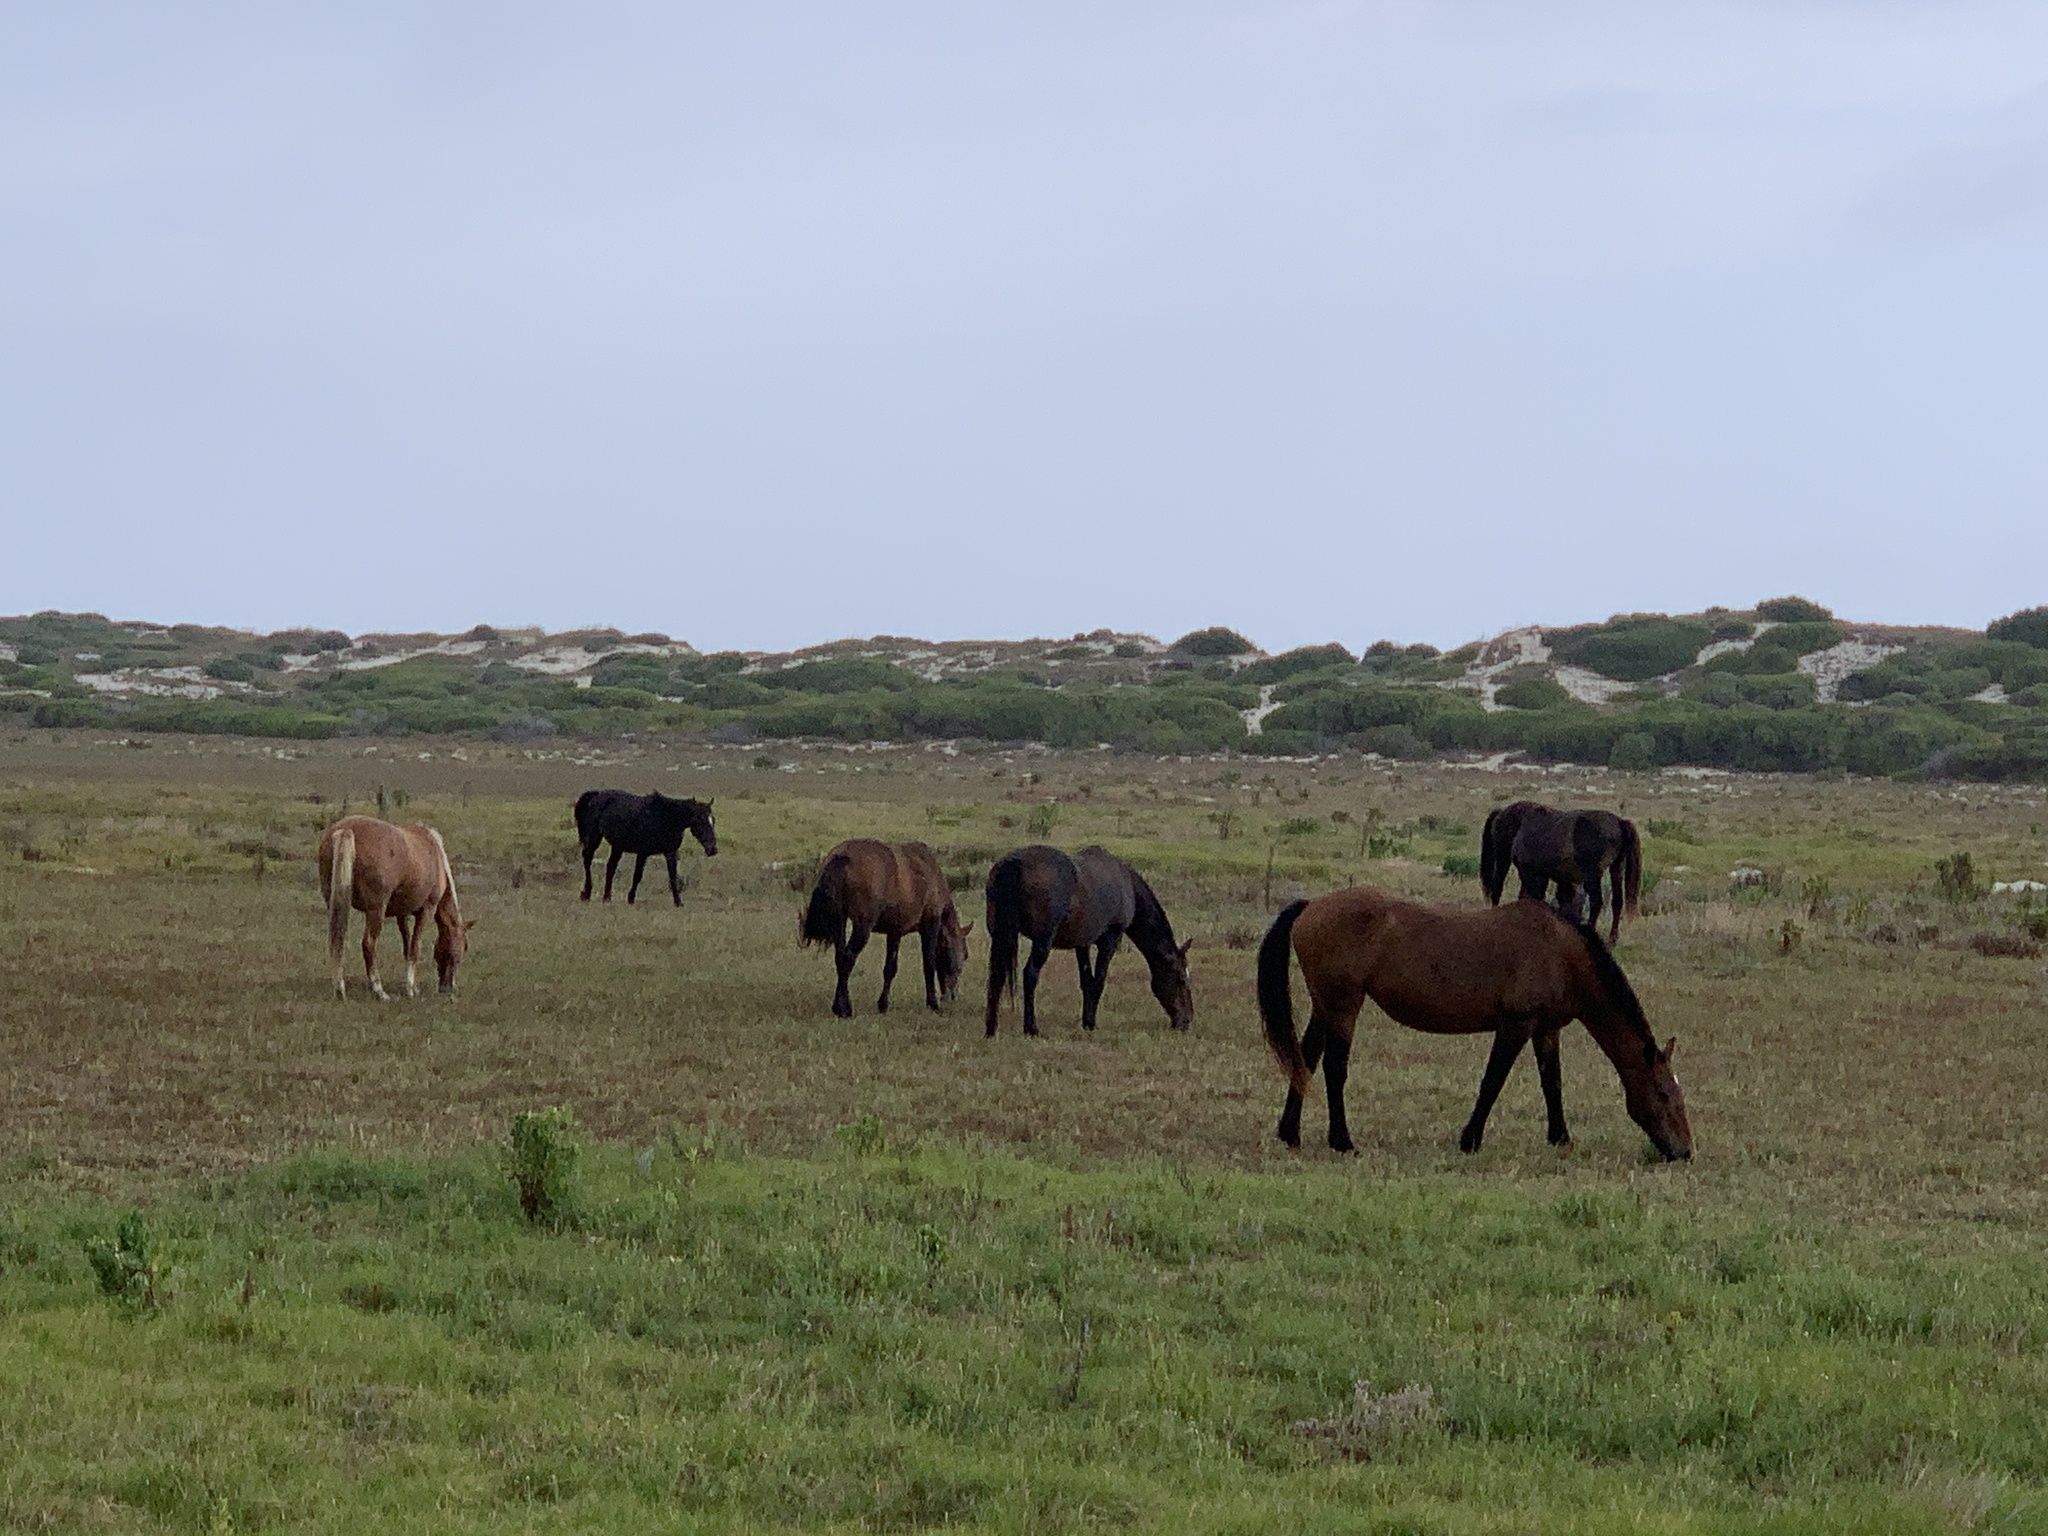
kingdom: Animalia
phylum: Chordata
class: Mammalia
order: Perissodactyla
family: Equidae
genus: Equus
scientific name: Equus caballus
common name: Horse
